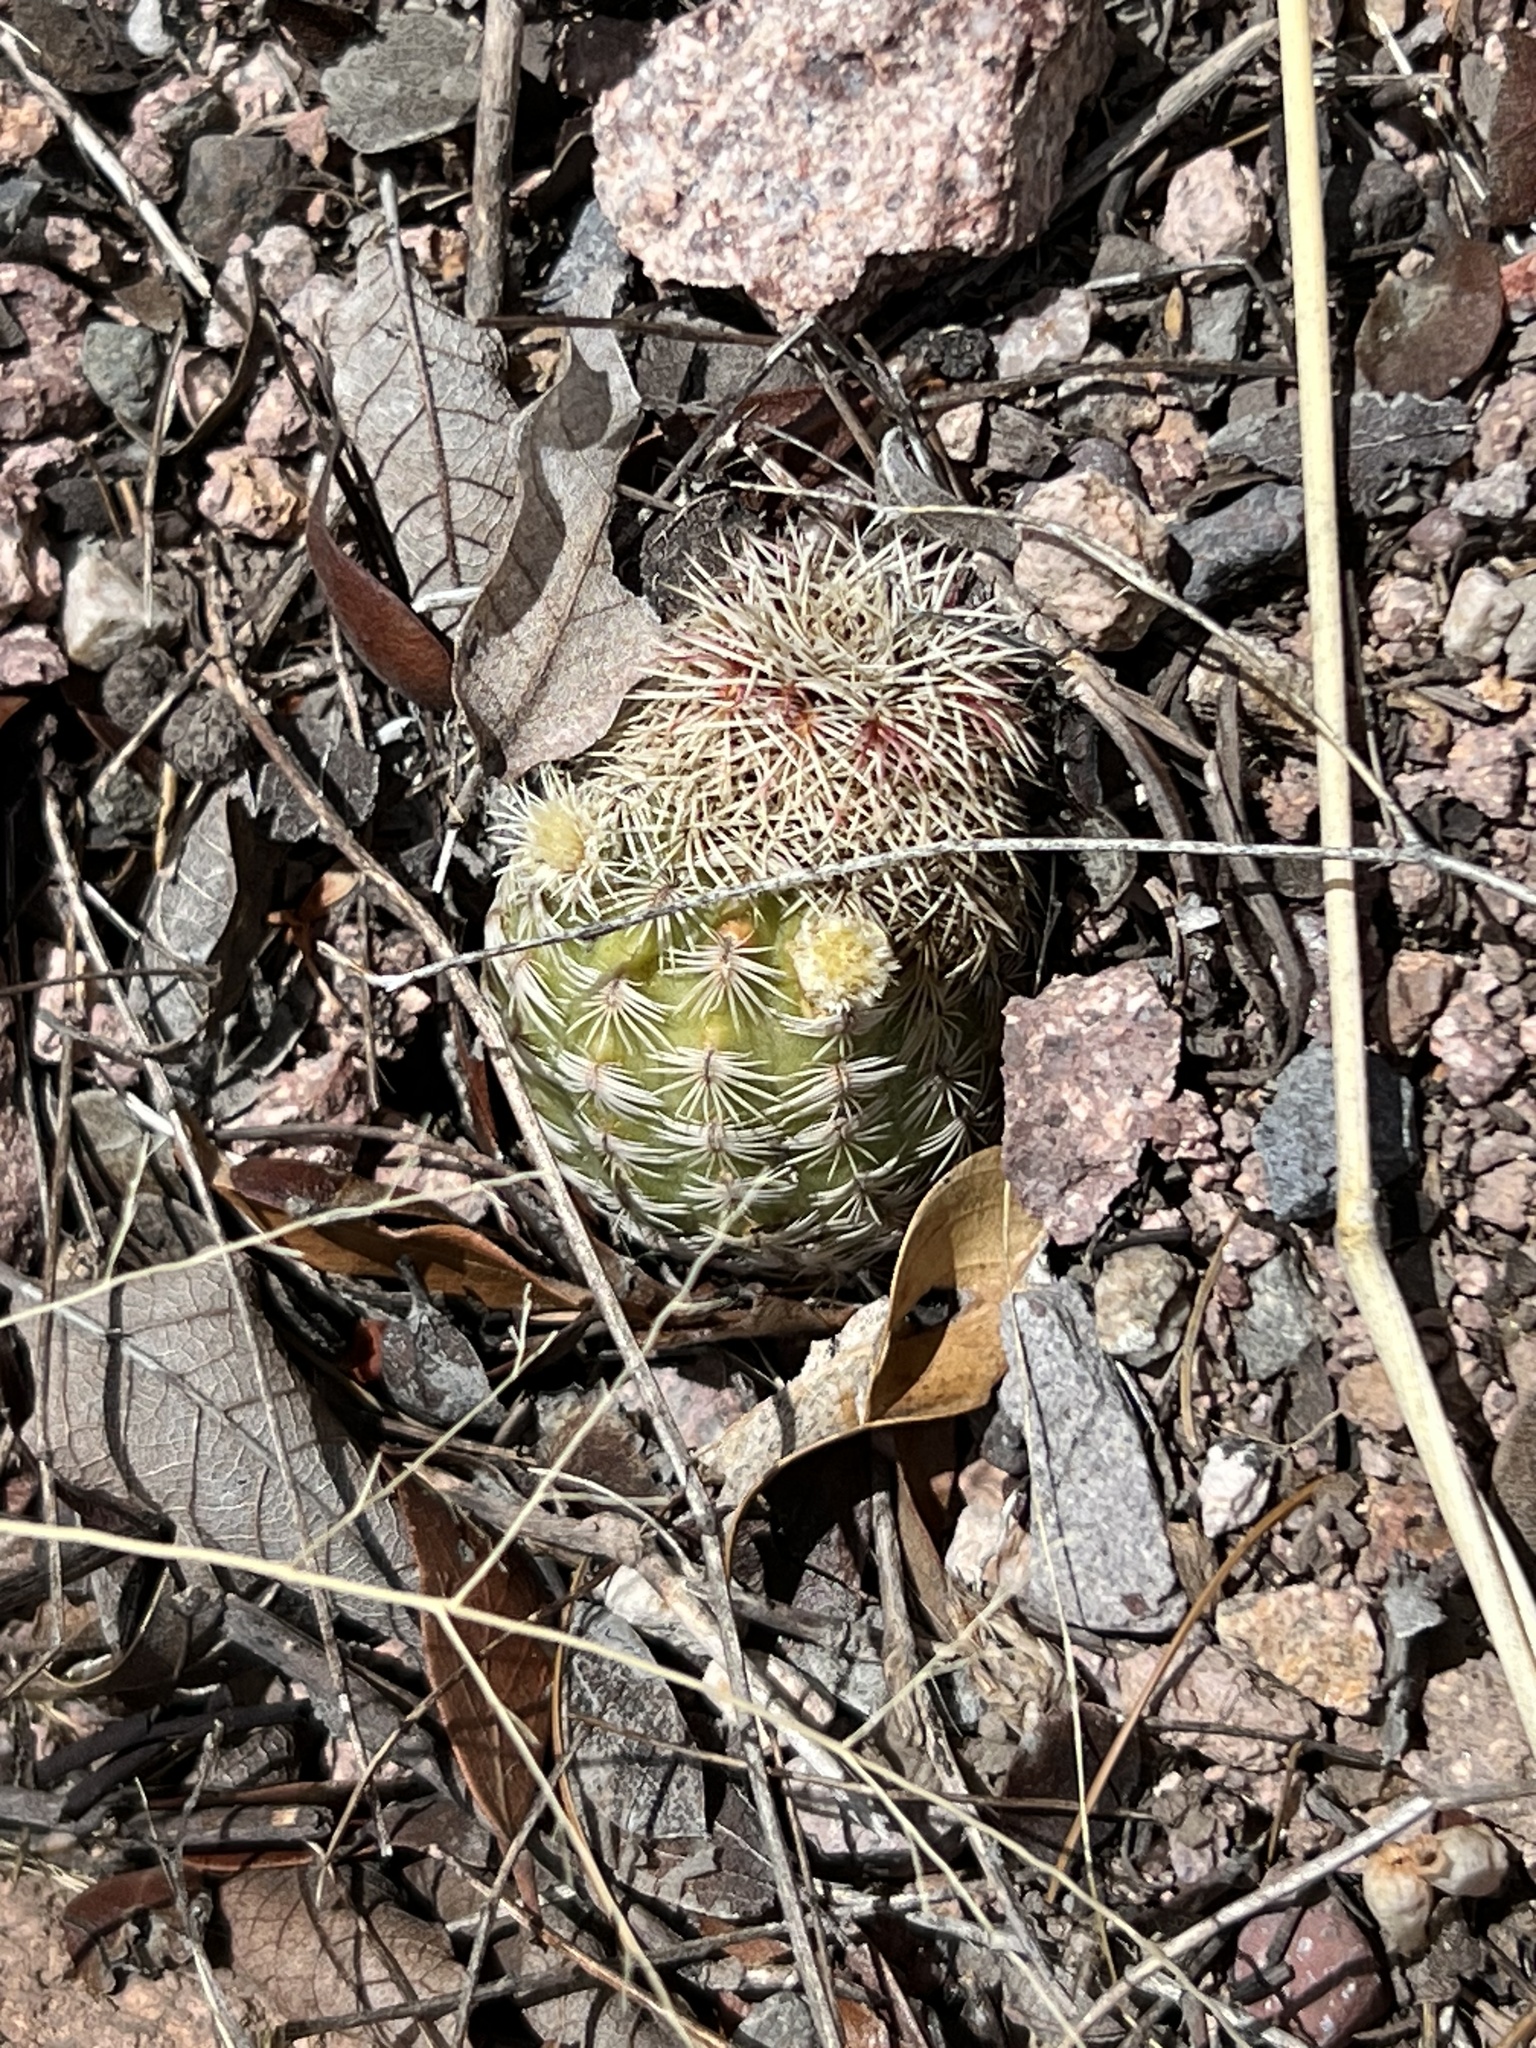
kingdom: Plantae
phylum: Tracheophyta
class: Magnoliopsida
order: Caryophyllales
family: Cactaceae
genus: Echinocereus
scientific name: Echinocereus rigidissimus
